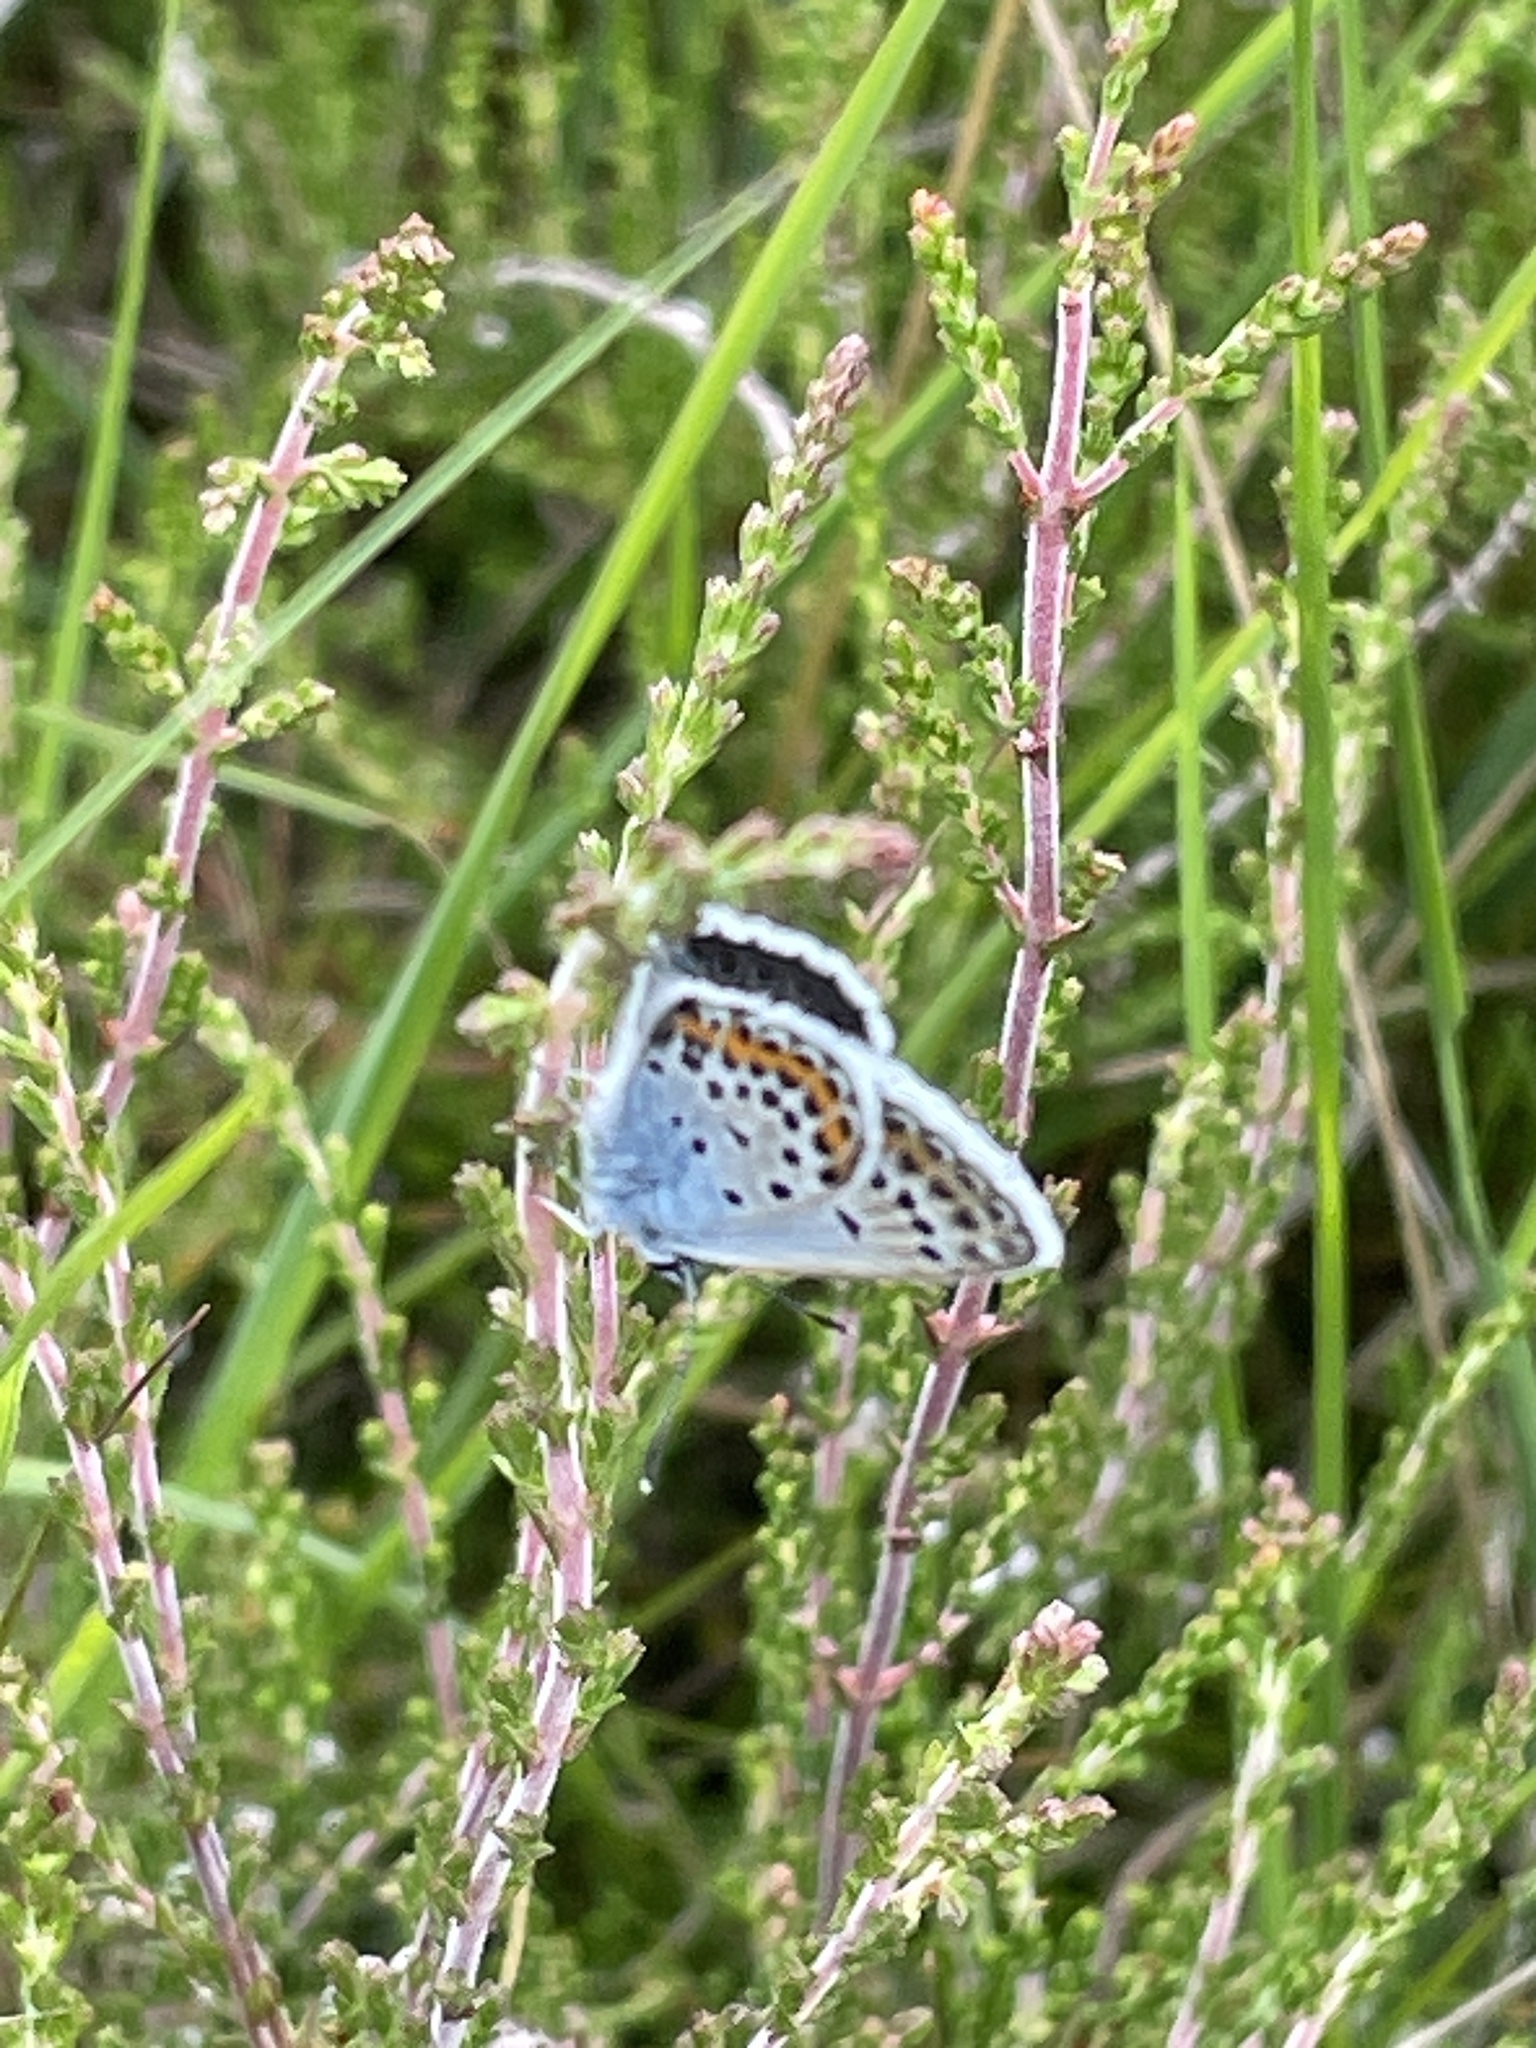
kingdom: Animalia
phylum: Arthropoda
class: Insecta
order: Lepidoptera
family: Lycaenidae
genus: Plebejus
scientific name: Plebejus argus
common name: Silver-studded blue
